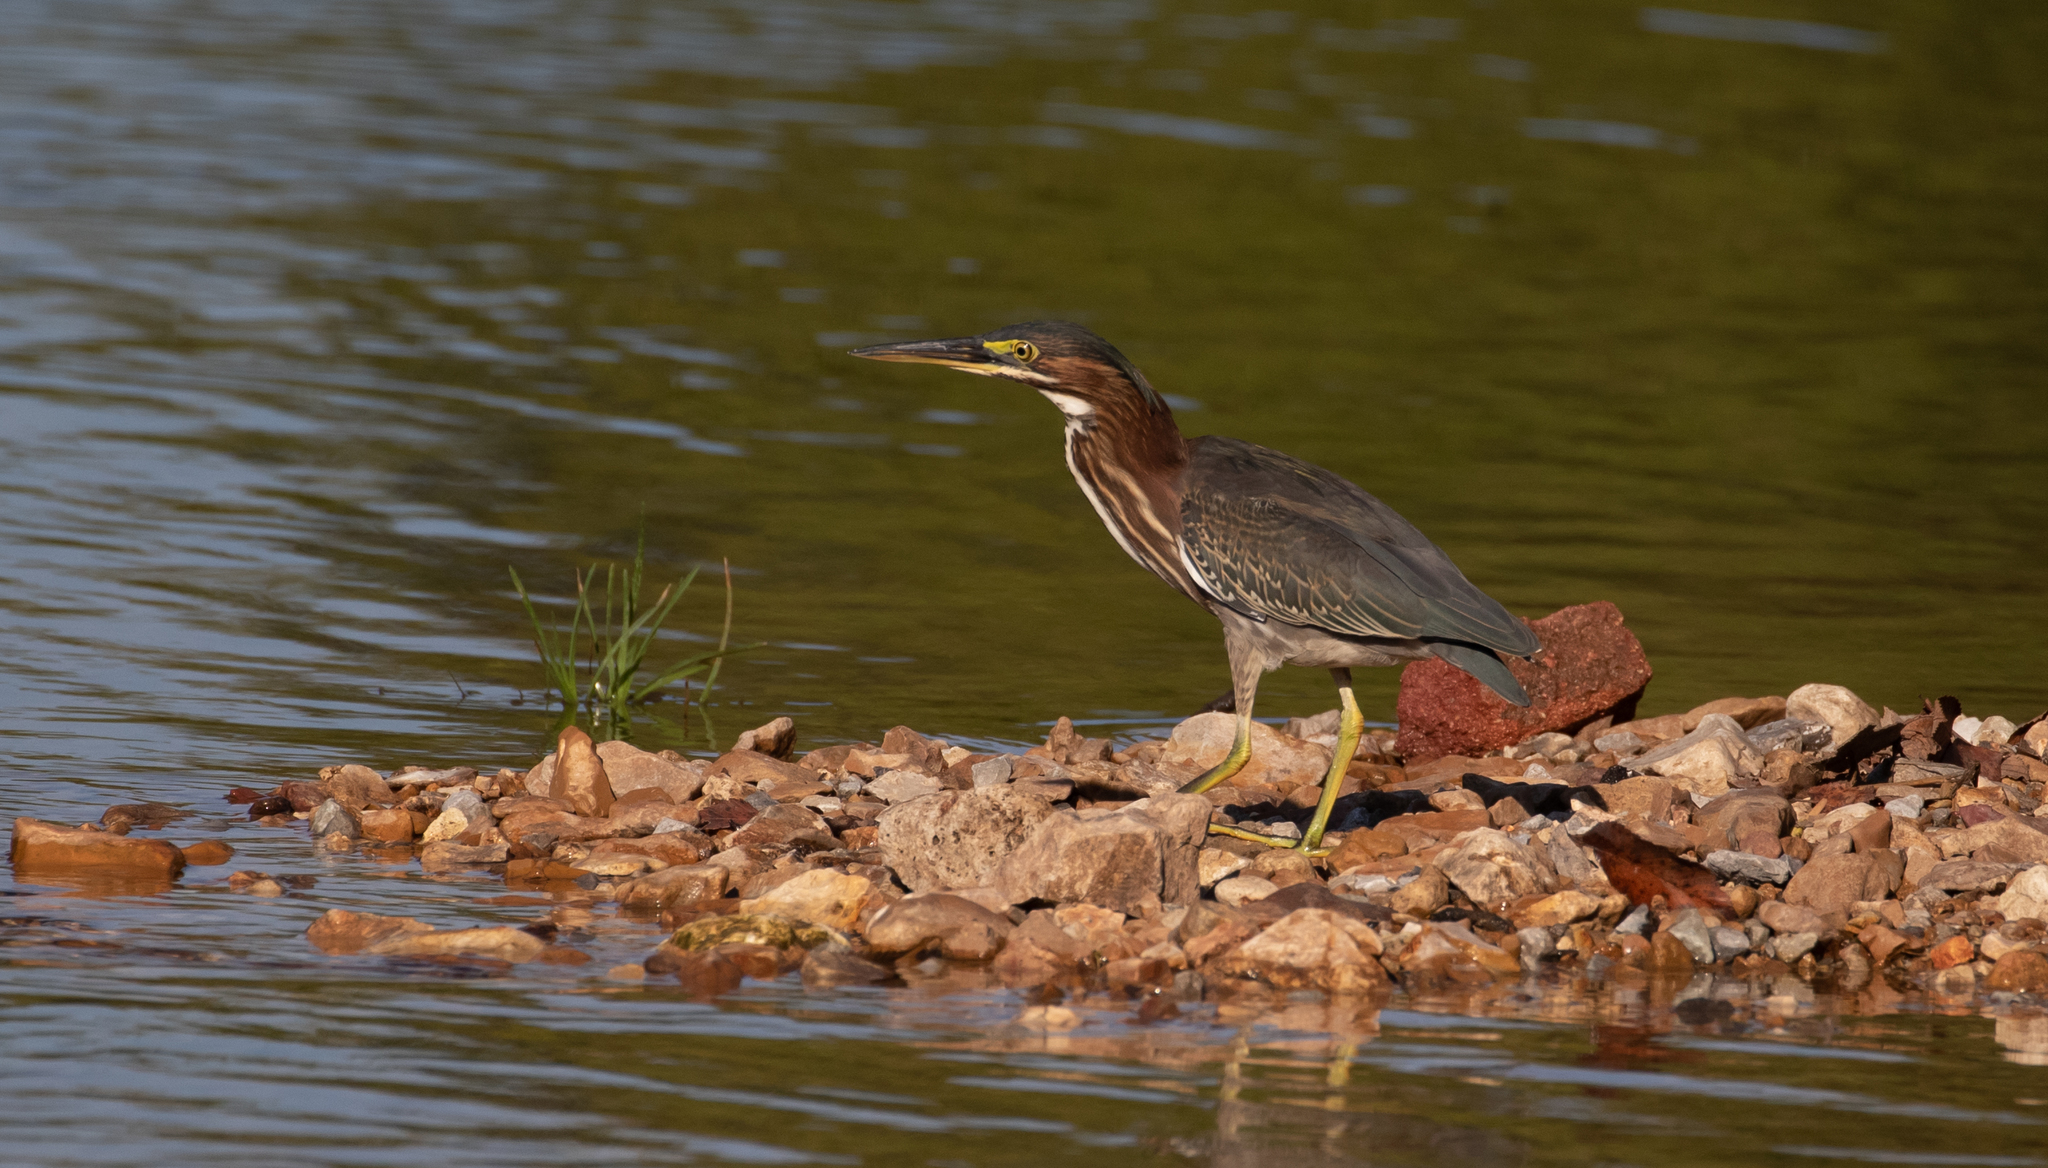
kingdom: Animalia
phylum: Chordata
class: Aves
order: Pelecaniformes
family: Ardeidae
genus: Butorides
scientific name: Butorides virescens
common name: Green heron
